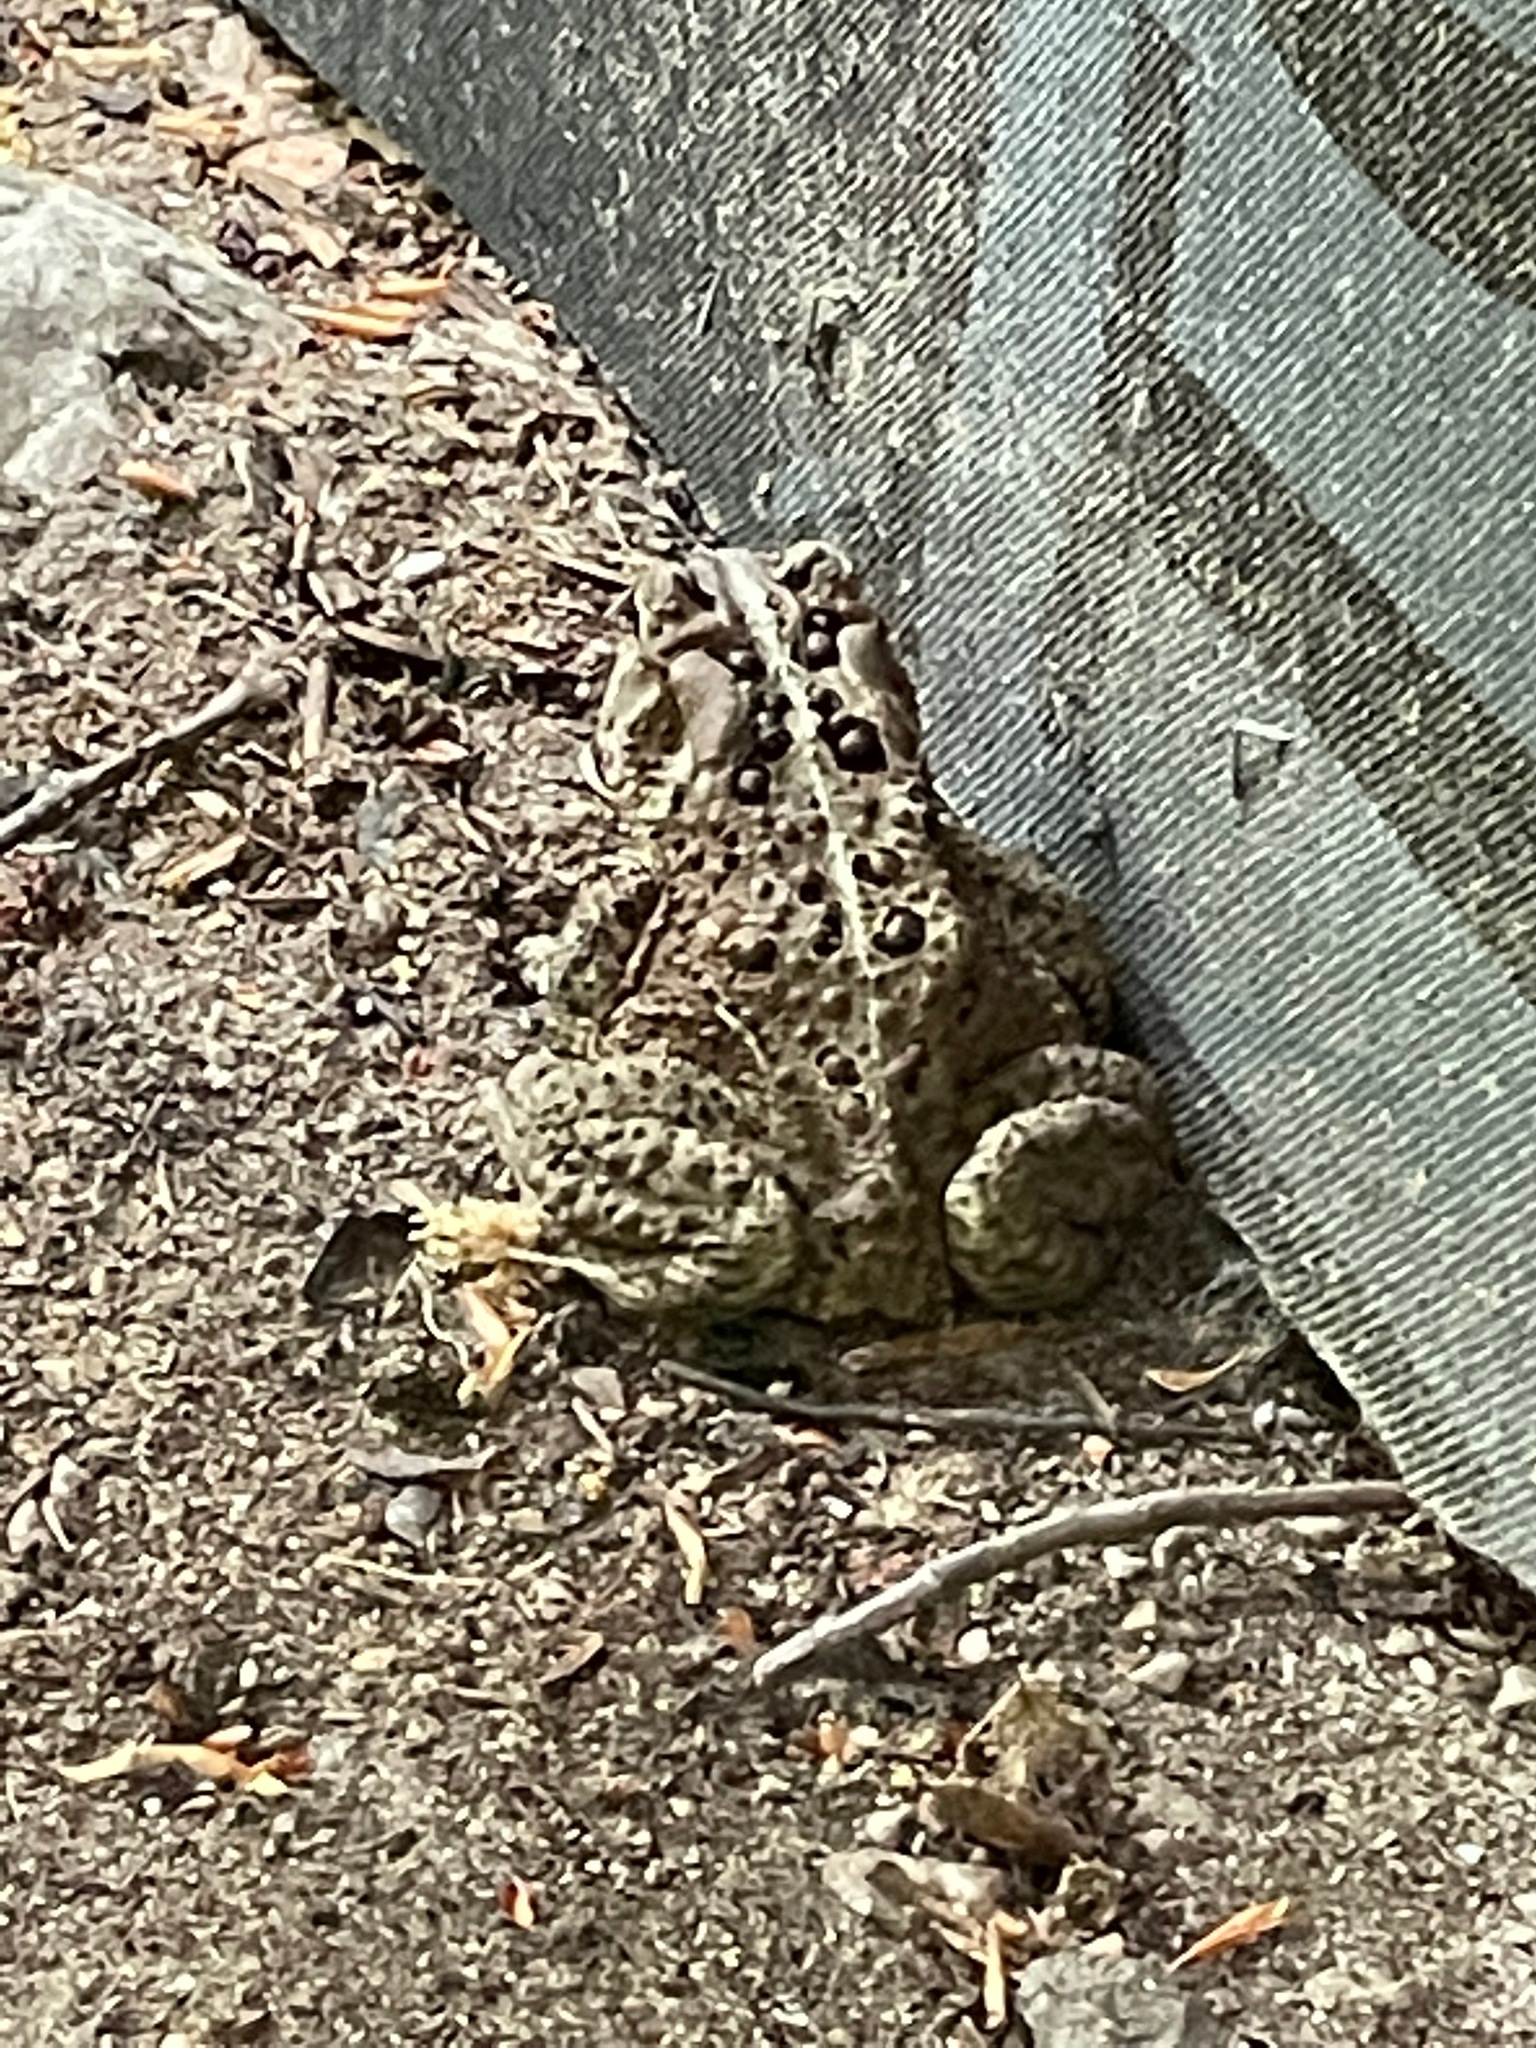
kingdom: Animalia
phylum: Chordata
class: Amphibia
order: Anura
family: Bufonidae
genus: Anaxyrus
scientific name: Anaxyrus americanus
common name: American toad
